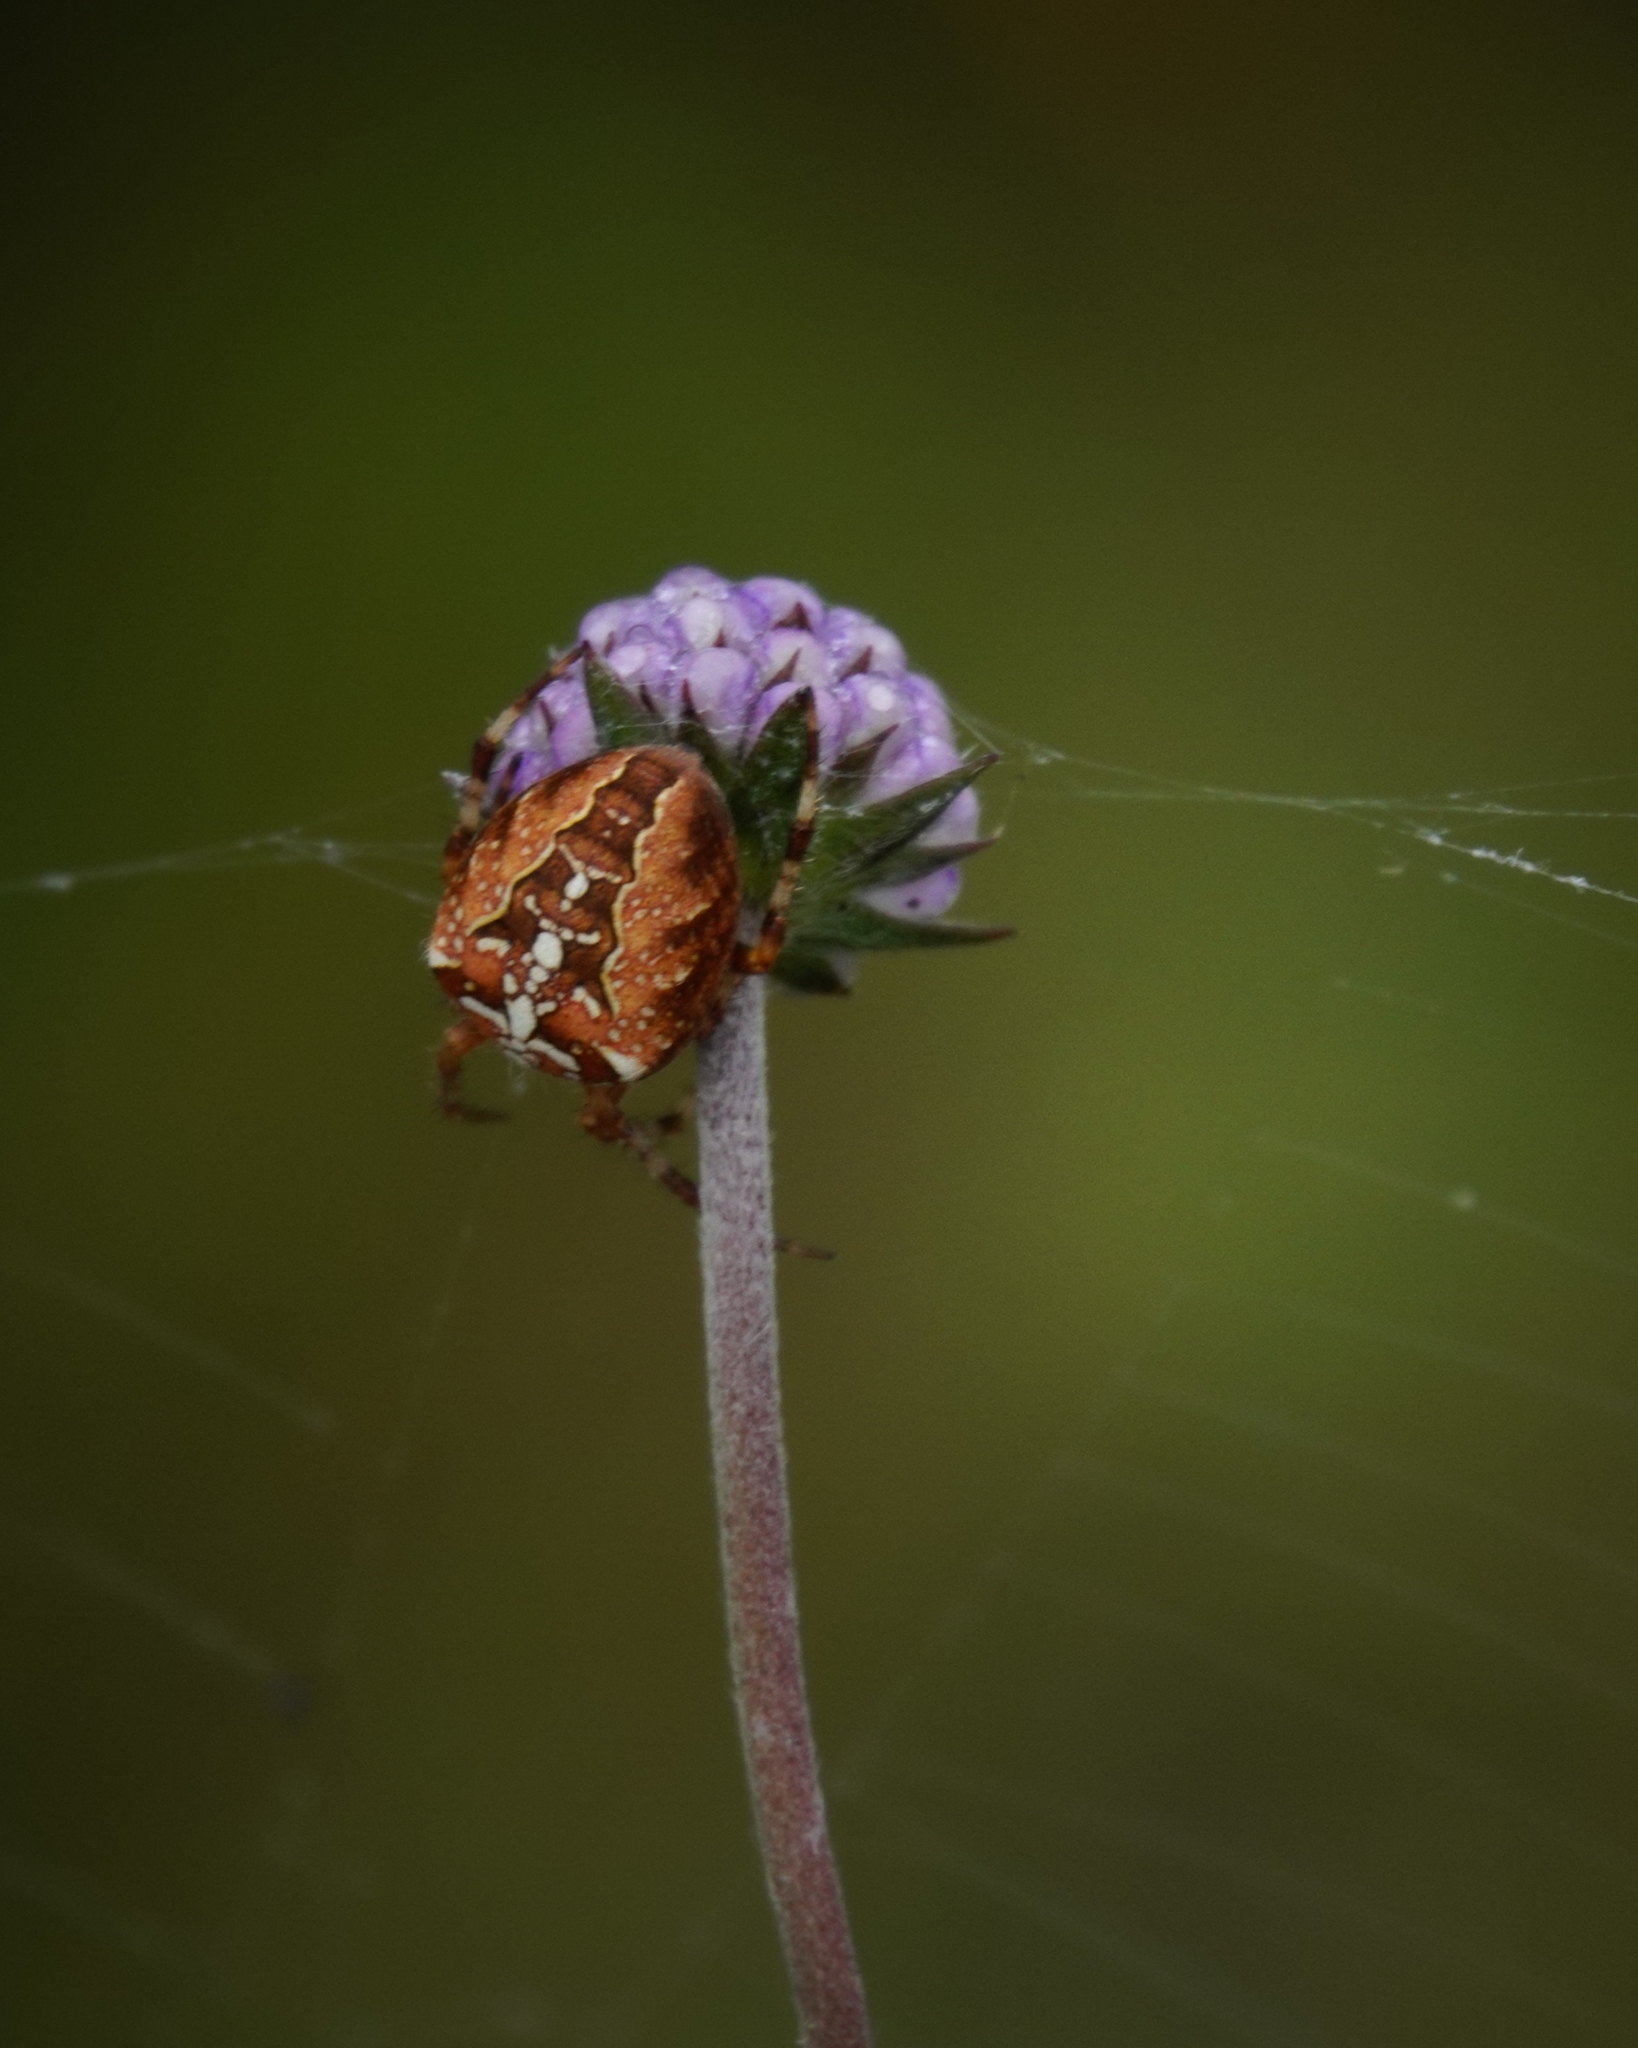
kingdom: Animalia
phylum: Arthropoda
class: Arachnida
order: Araneae
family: Araneidae
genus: Araneus
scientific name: Araneus diadematus
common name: Cross orbweaver
